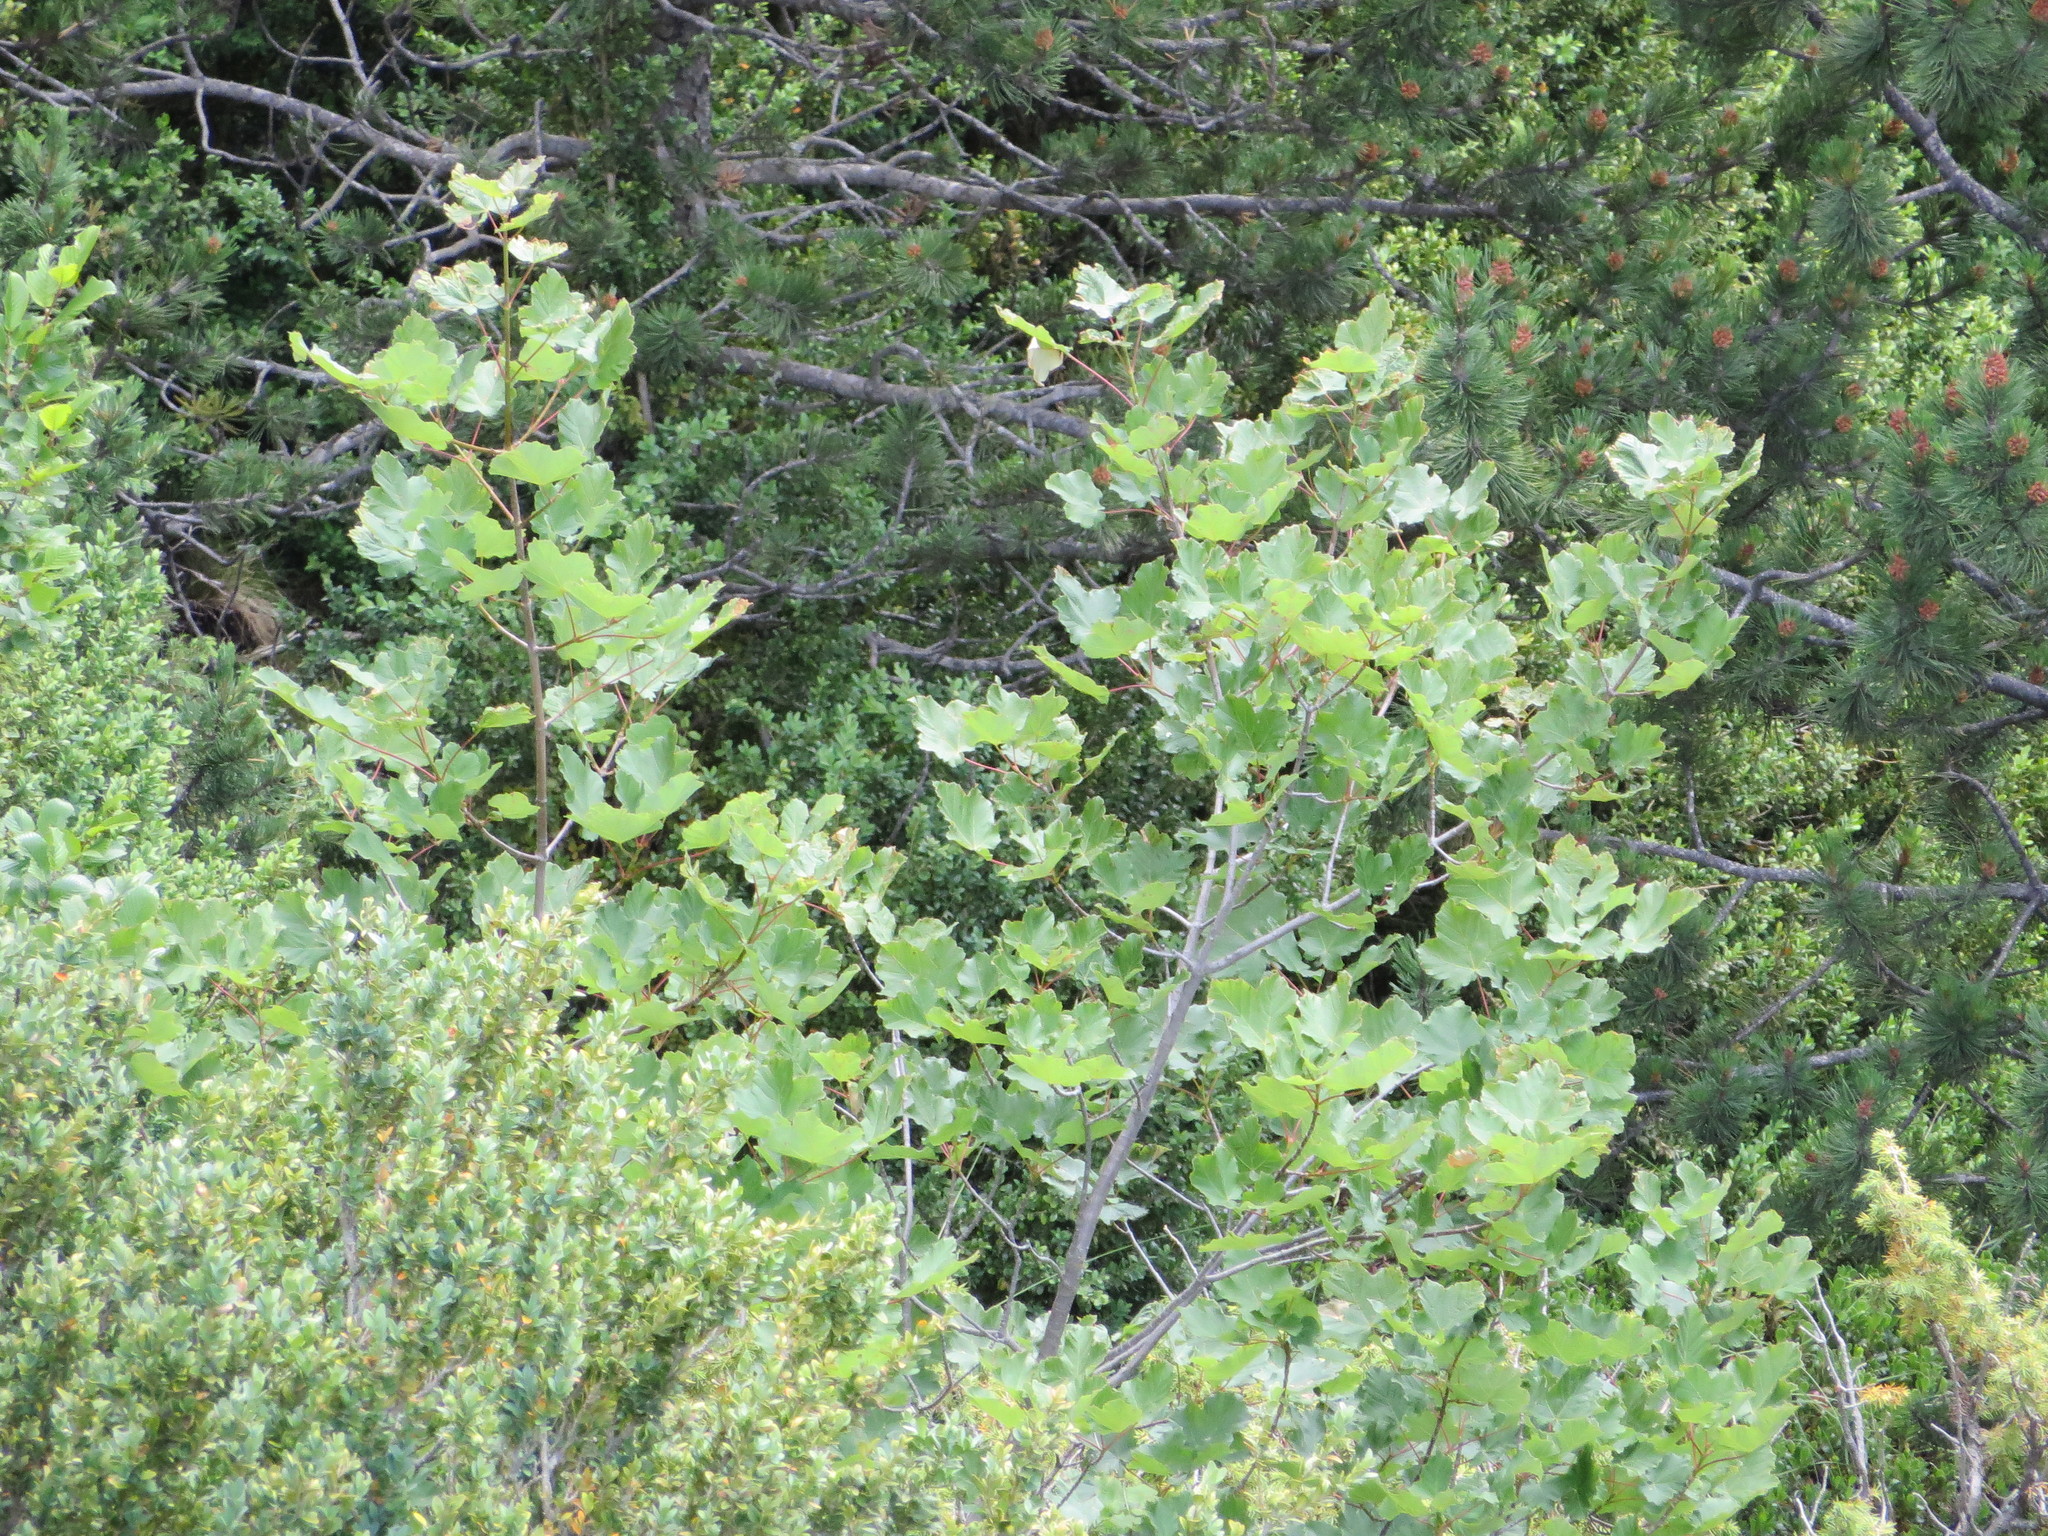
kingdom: Plantae
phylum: Tracheophyta
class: Magnoliopsida
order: Sapindales
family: Sapindaceae
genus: Acer
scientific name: Acer opalus
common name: Italian maple
